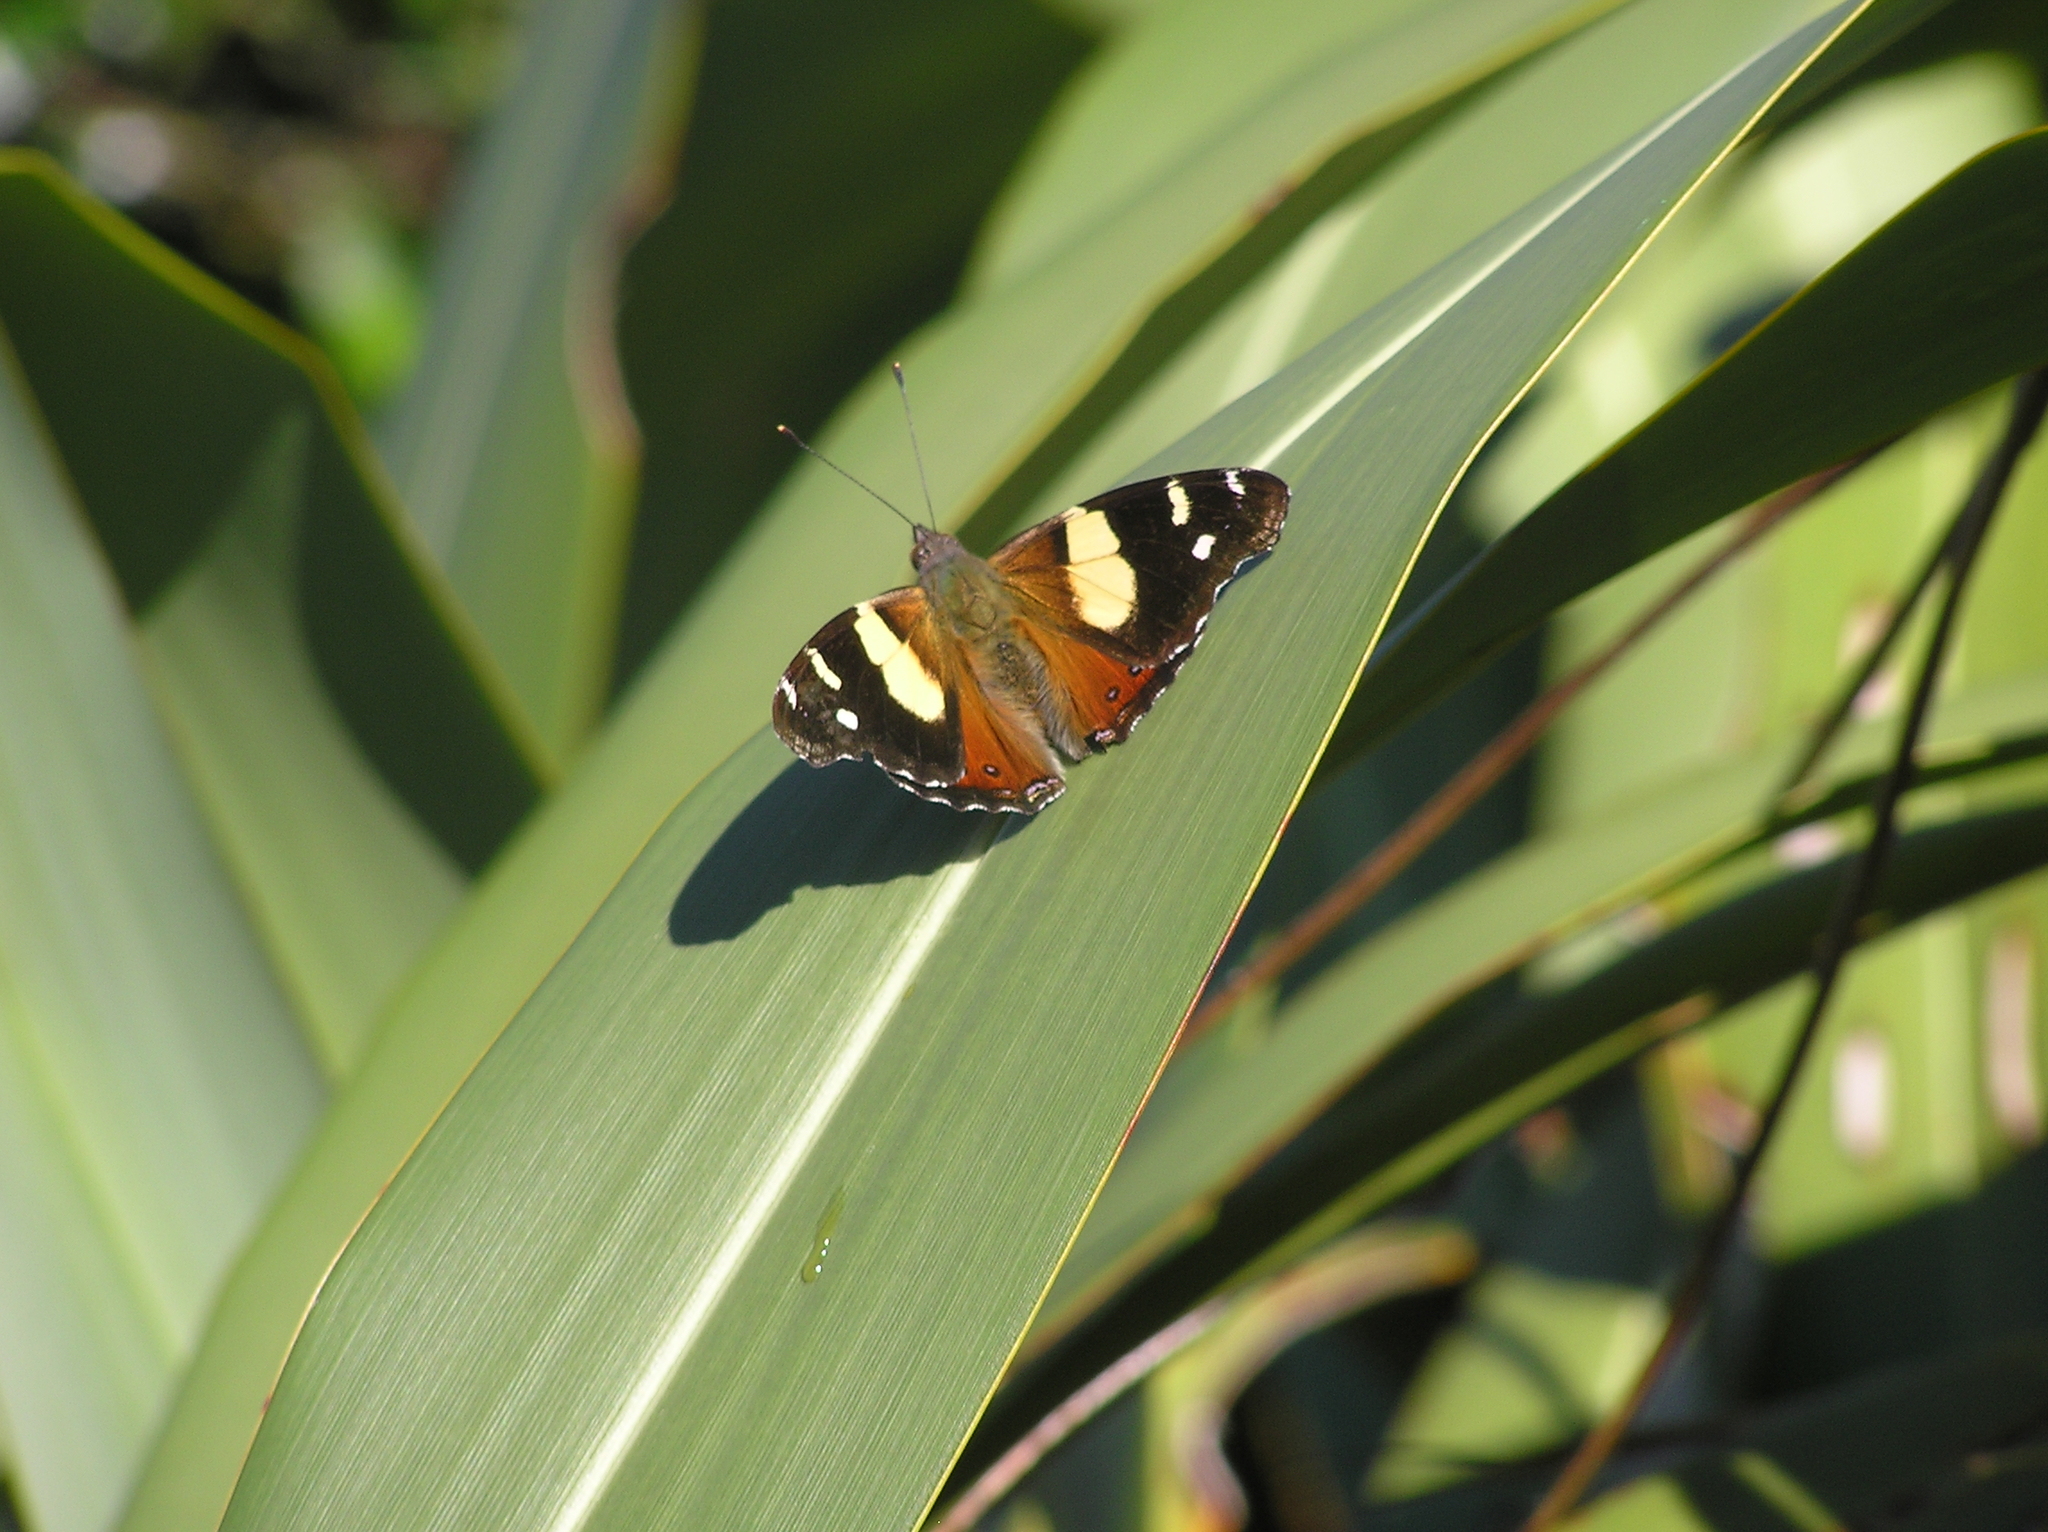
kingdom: Animalia
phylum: Arthropoda
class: Insecta
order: Lepidoptera
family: Nymphalidae
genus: Vanessa
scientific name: Vanessa itea
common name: Yellow admiral
